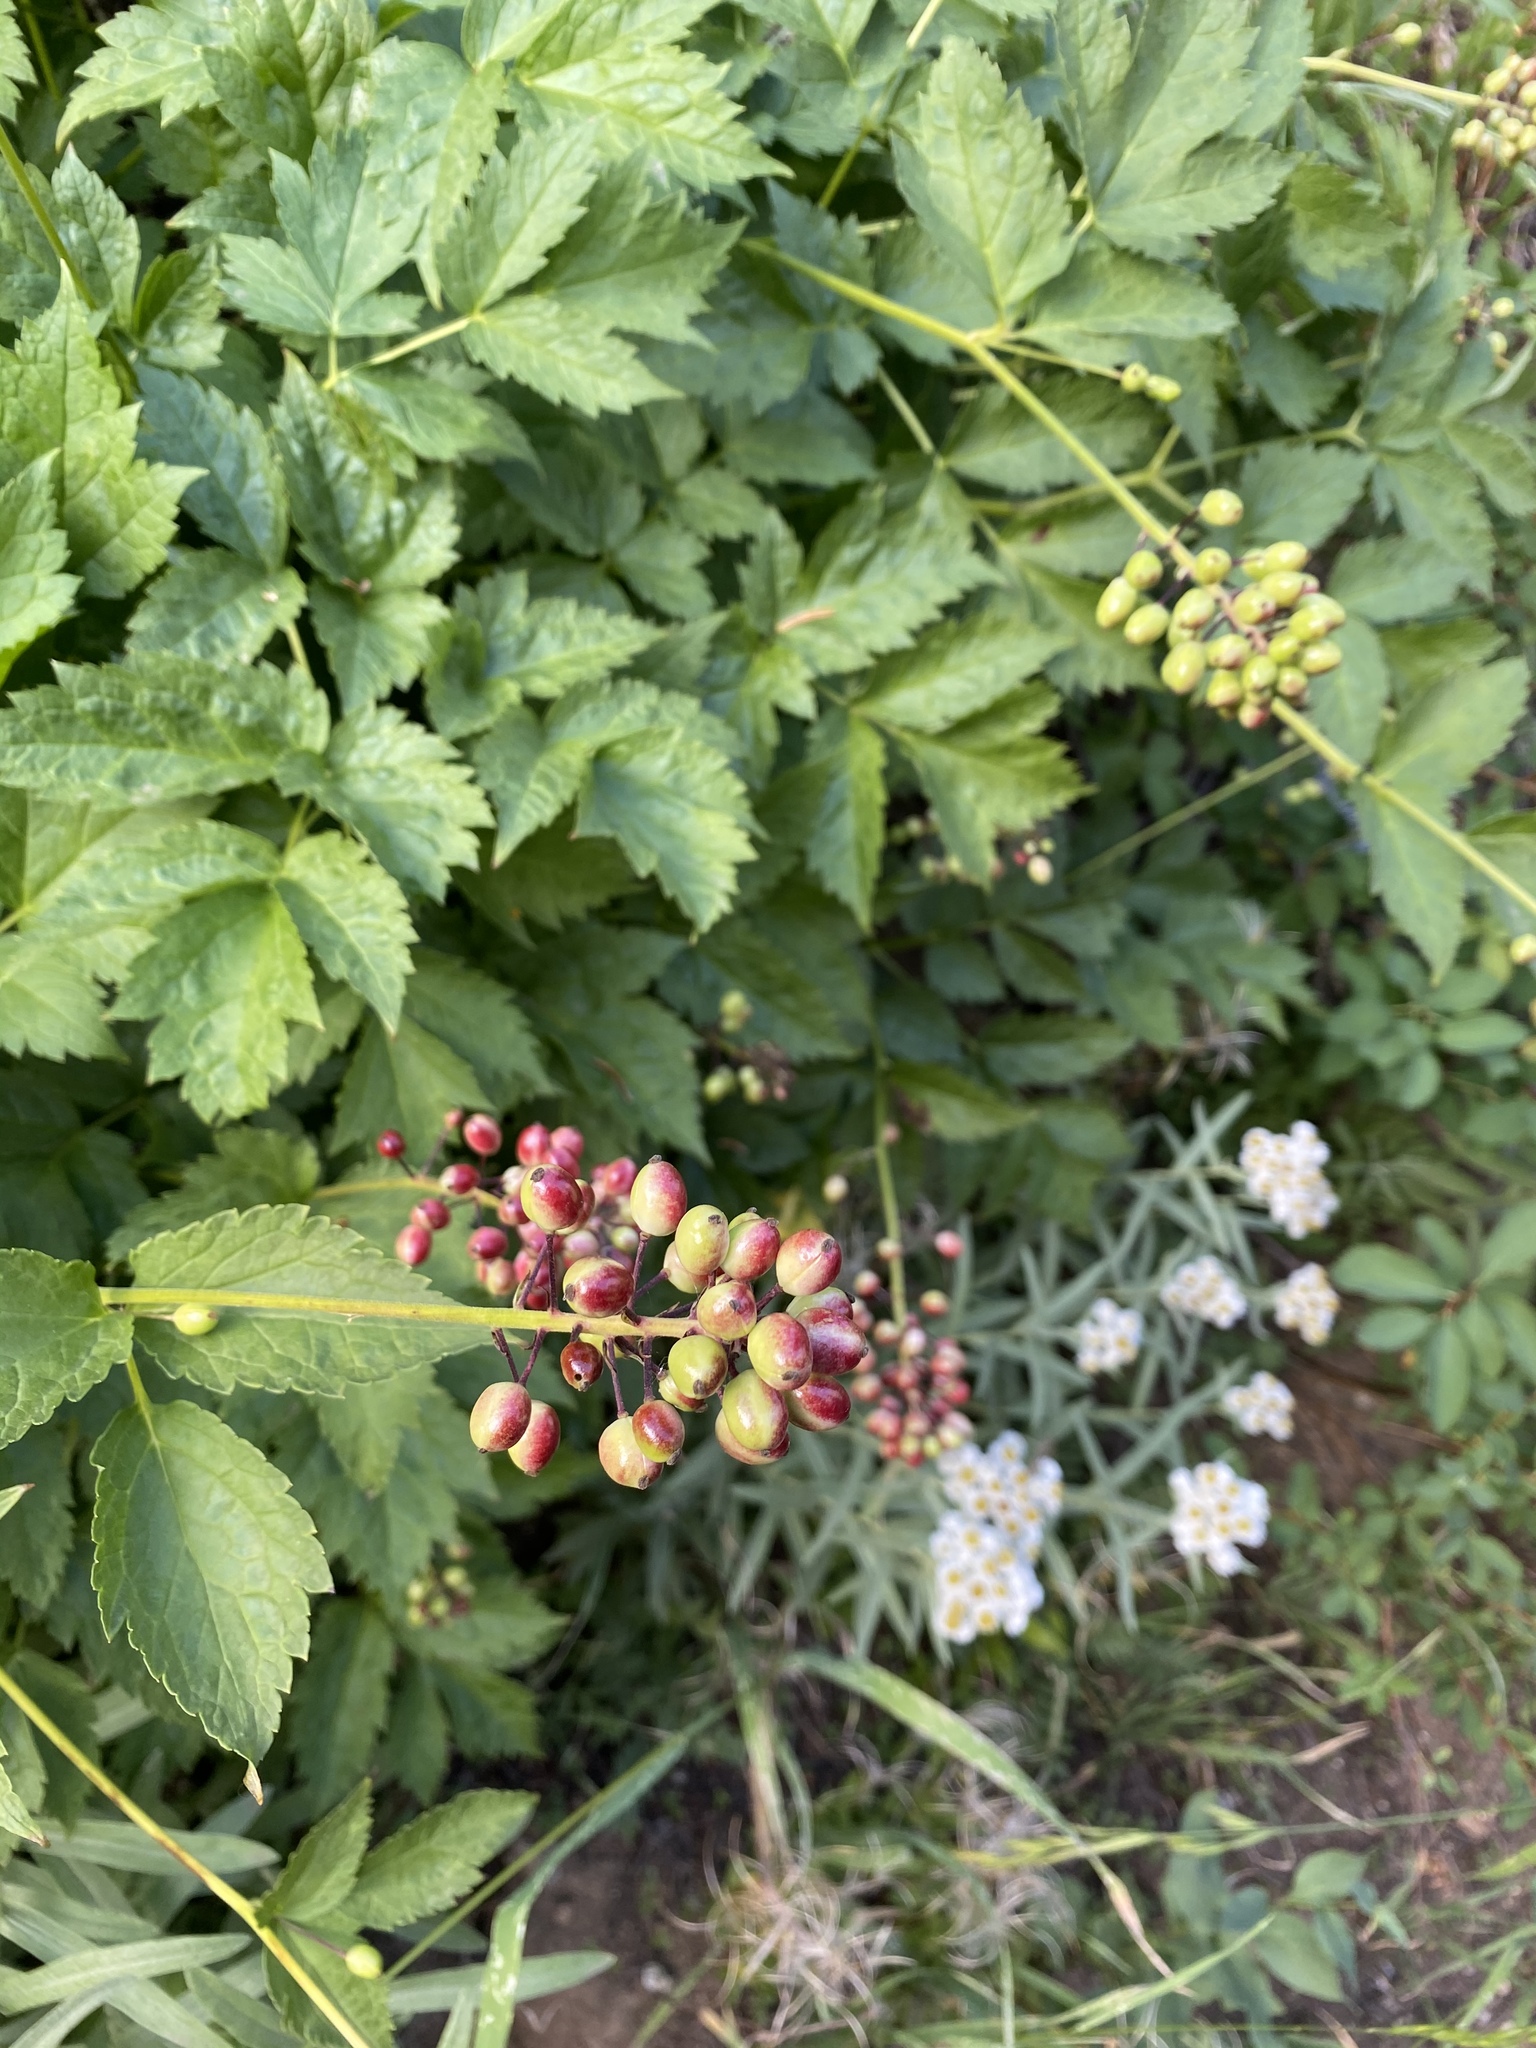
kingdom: Plantae
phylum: Tracheophyta
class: Magnoliopsida
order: Ranunculales
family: Ranunculaceae
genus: Actaea
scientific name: Actaea rubra
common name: Red baneberry
